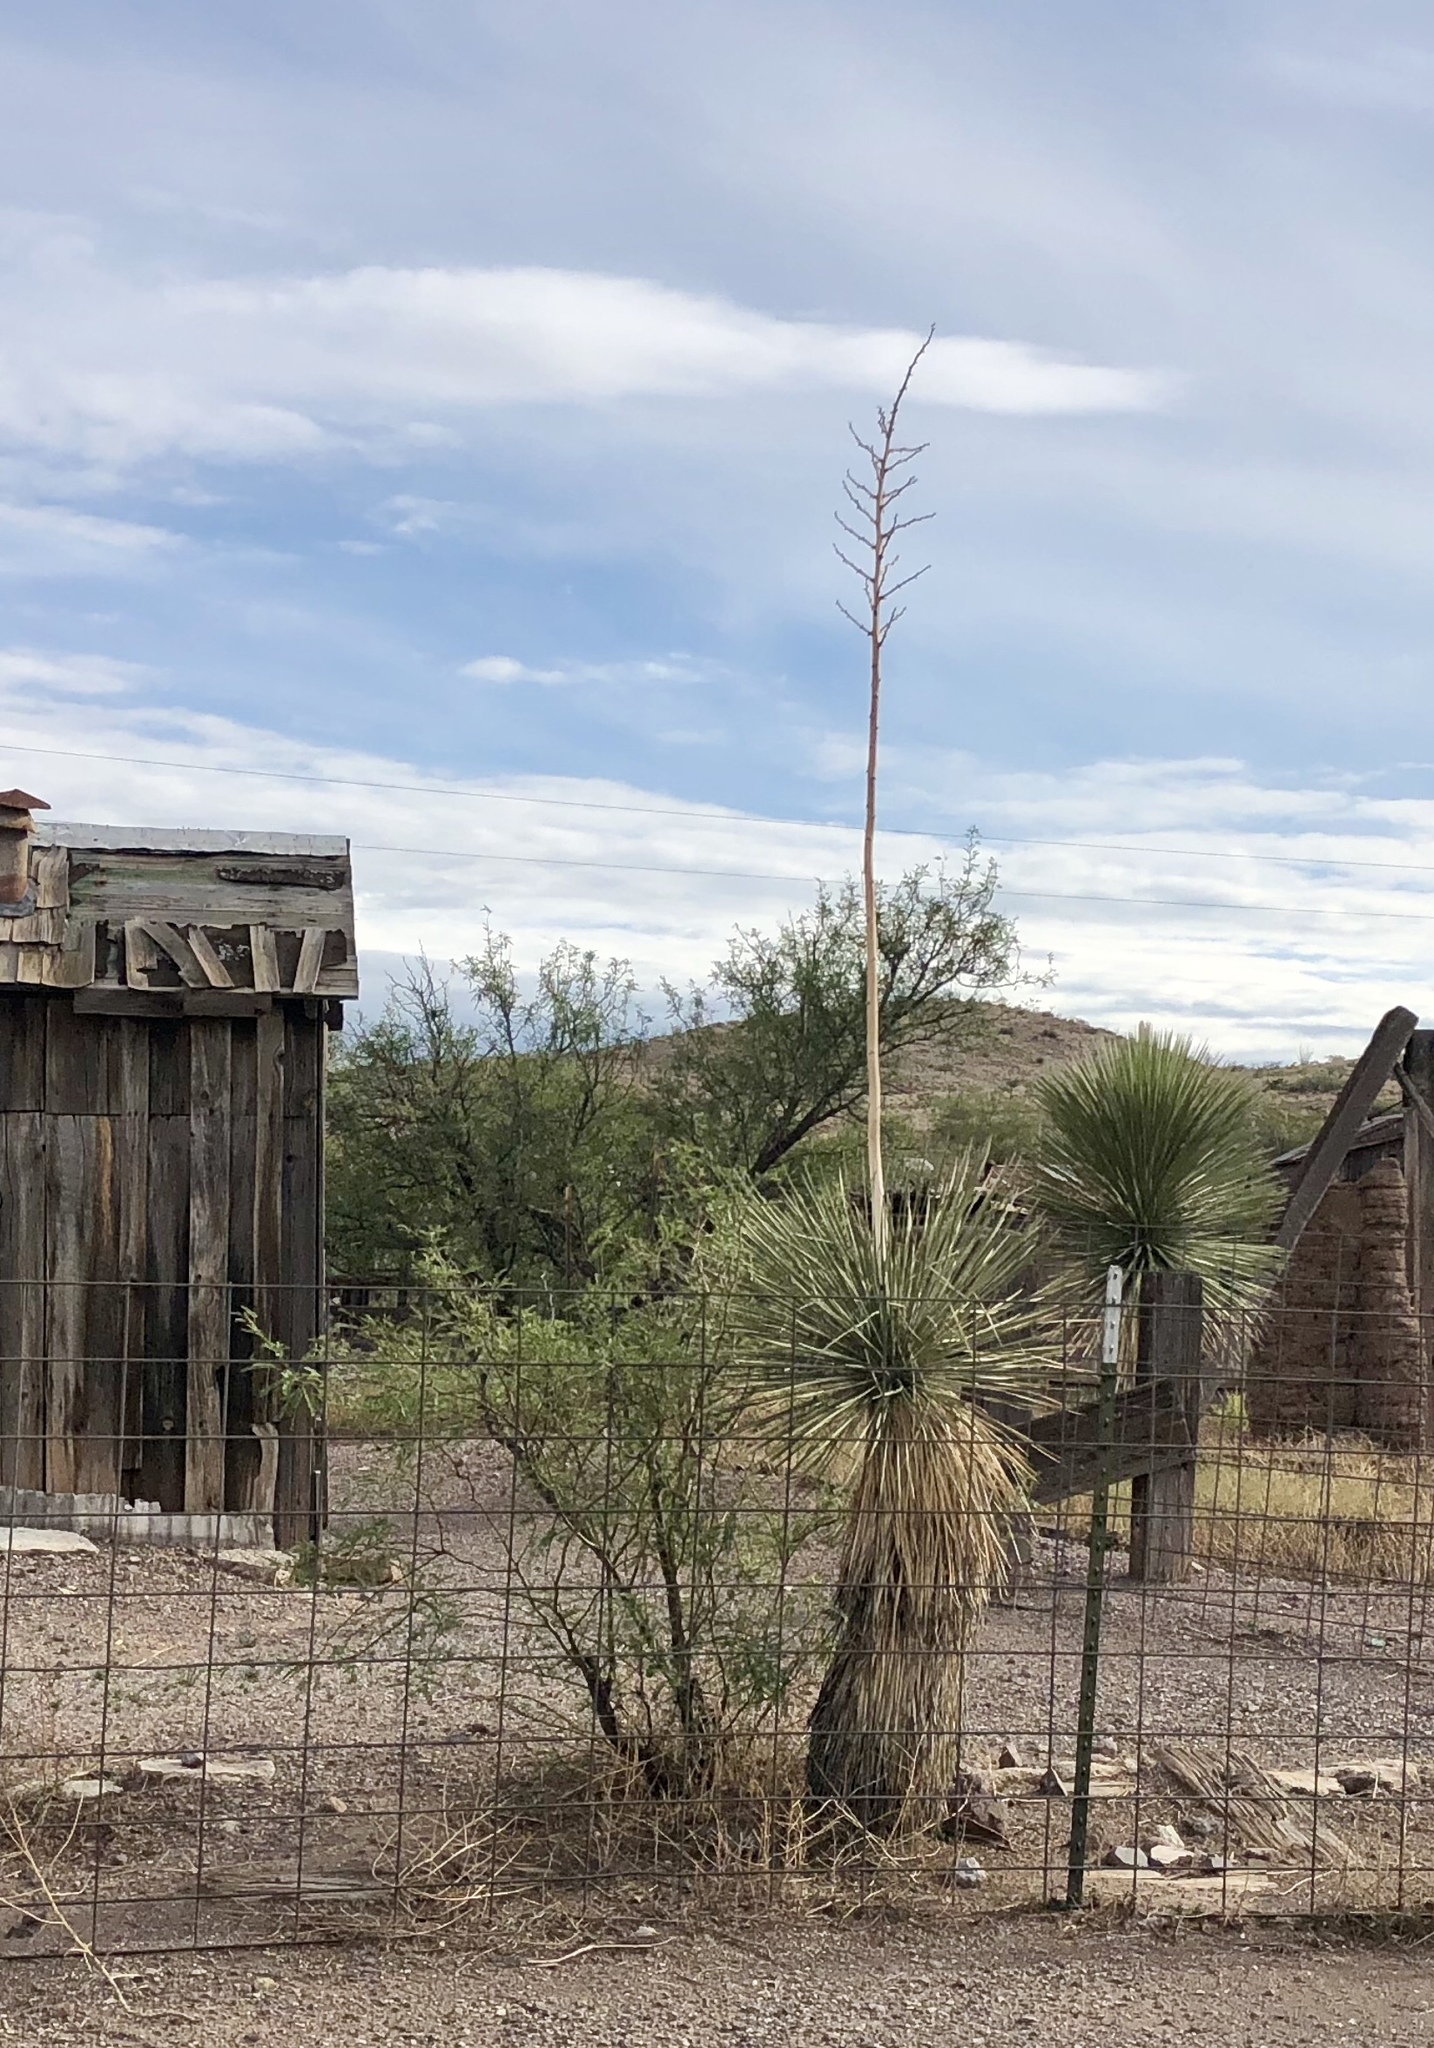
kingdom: Plantae
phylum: Tracheophyta
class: Liliopsida
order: Asparagales
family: Asparagaceae
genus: Yucca
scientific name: Yucca elata
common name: Palmella
